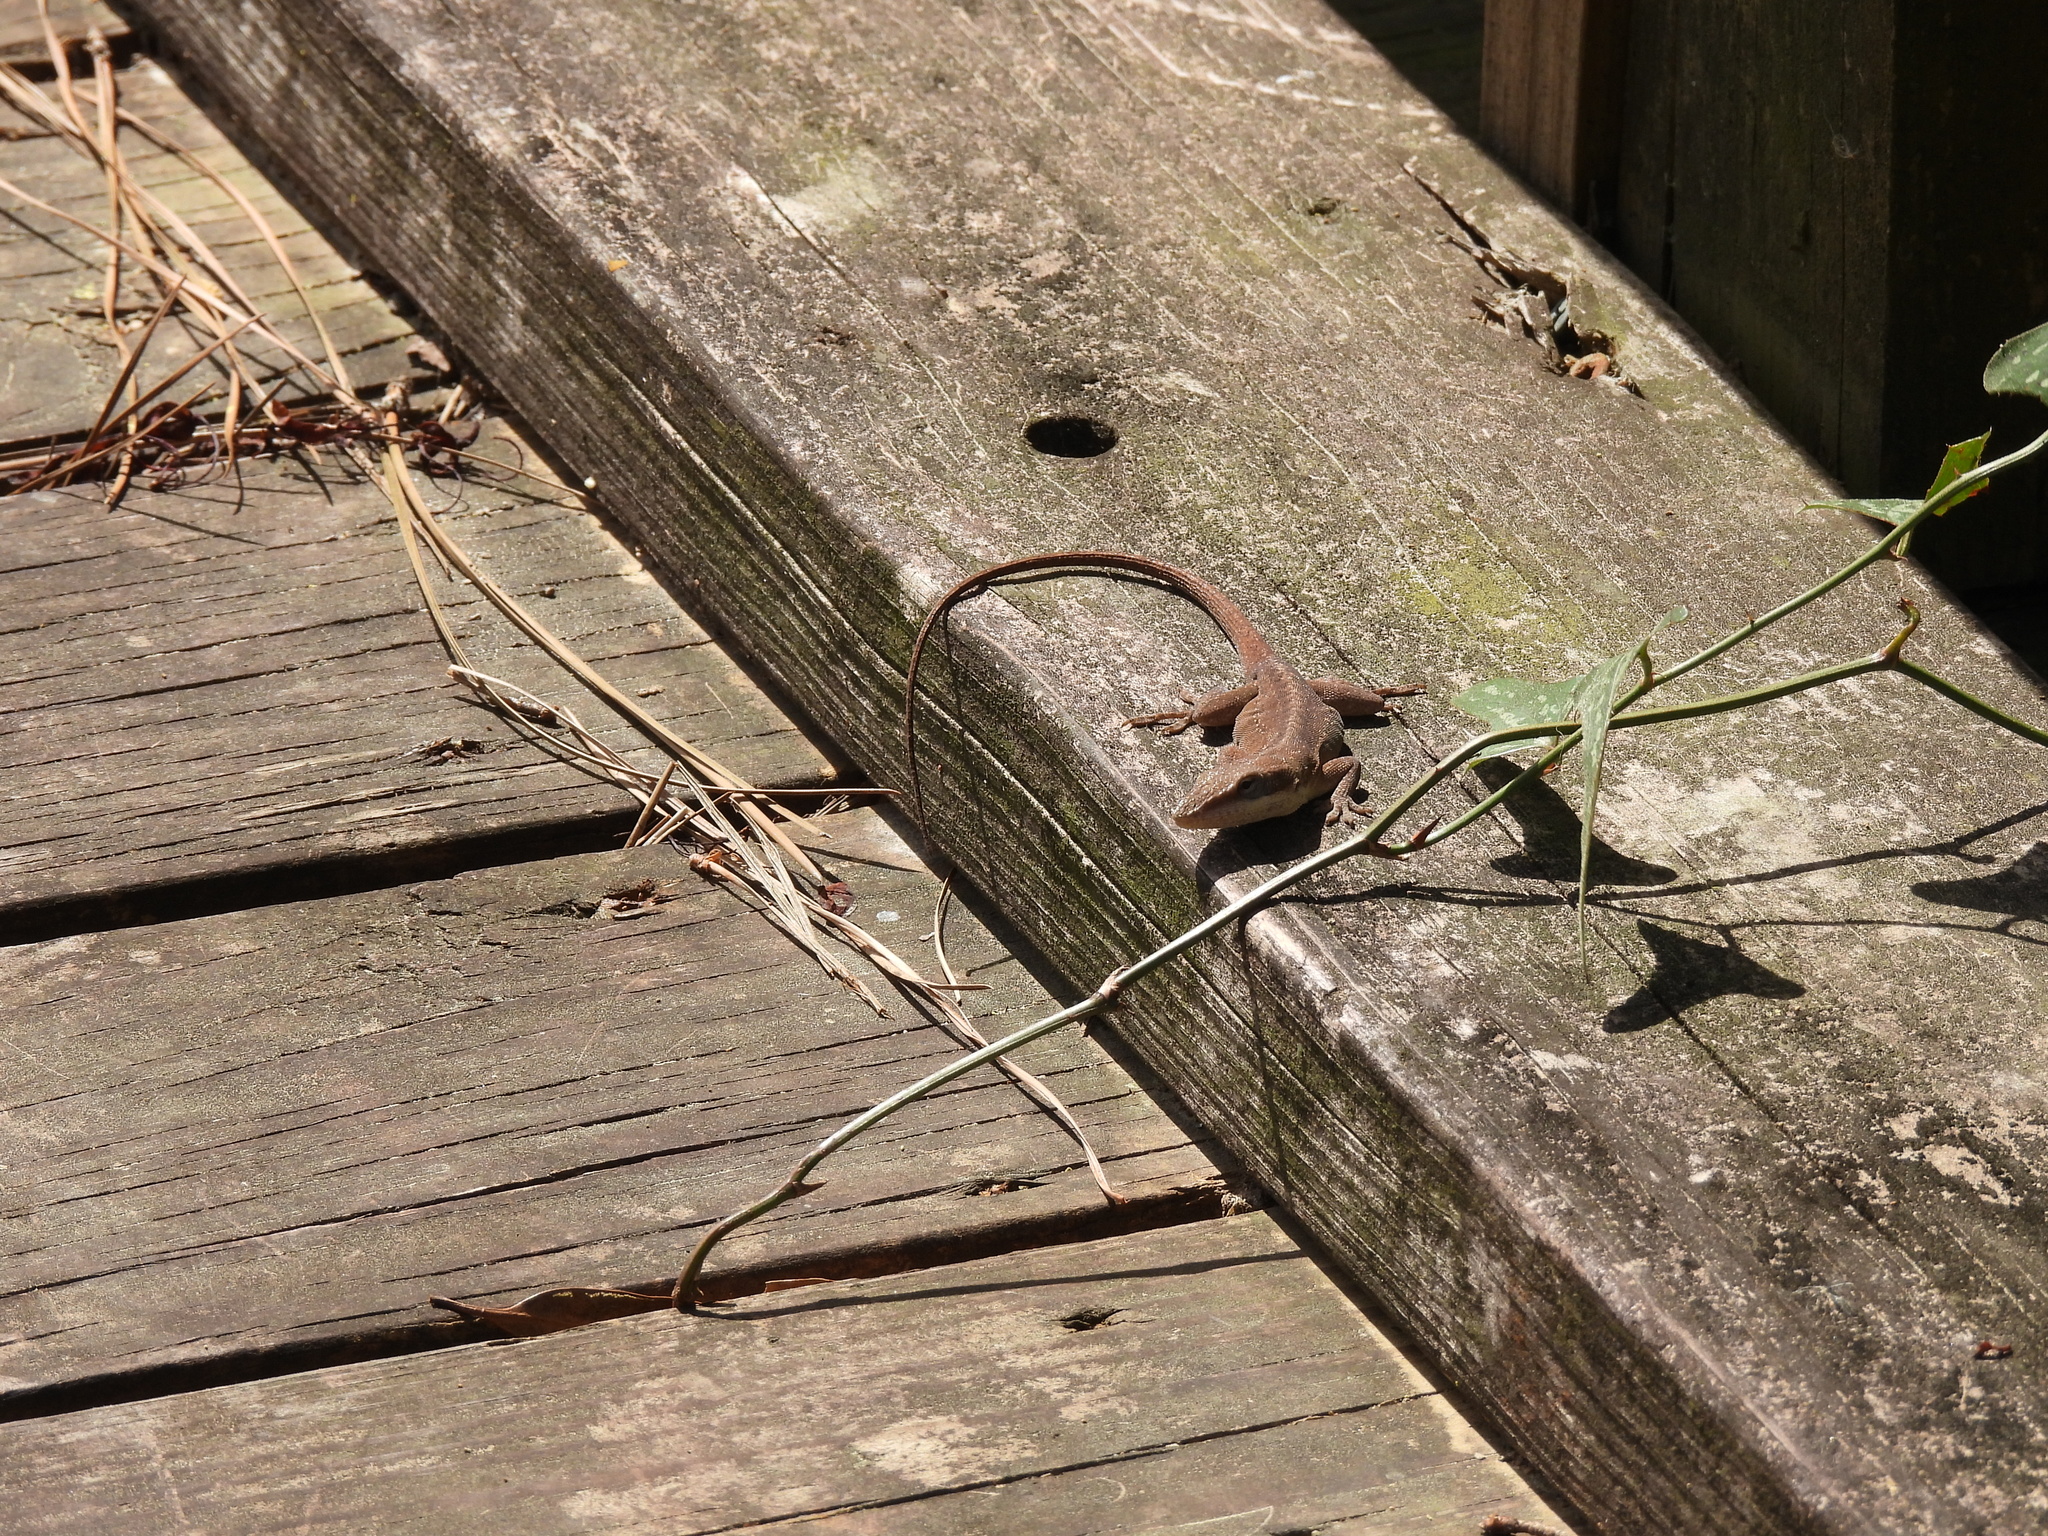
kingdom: Animalia
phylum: Chordata
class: Squamata
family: Dactyloidae
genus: Anolis
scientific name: Anolis carolinensis
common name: Green anole
